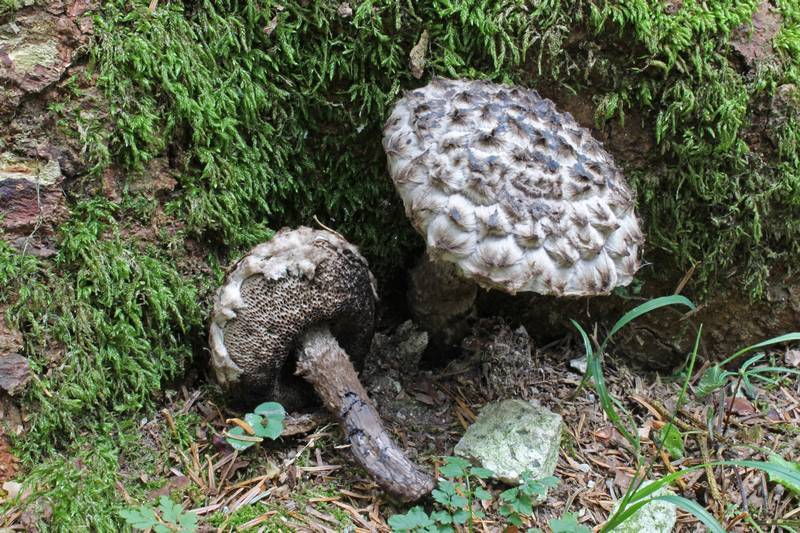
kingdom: Fungi
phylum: Basidiomycota
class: Agaricomycetes
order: Boletales
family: Boletaceae
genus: Strobilomyces
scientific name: Strobilomyces strobilaceus
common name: Old man of the woods
